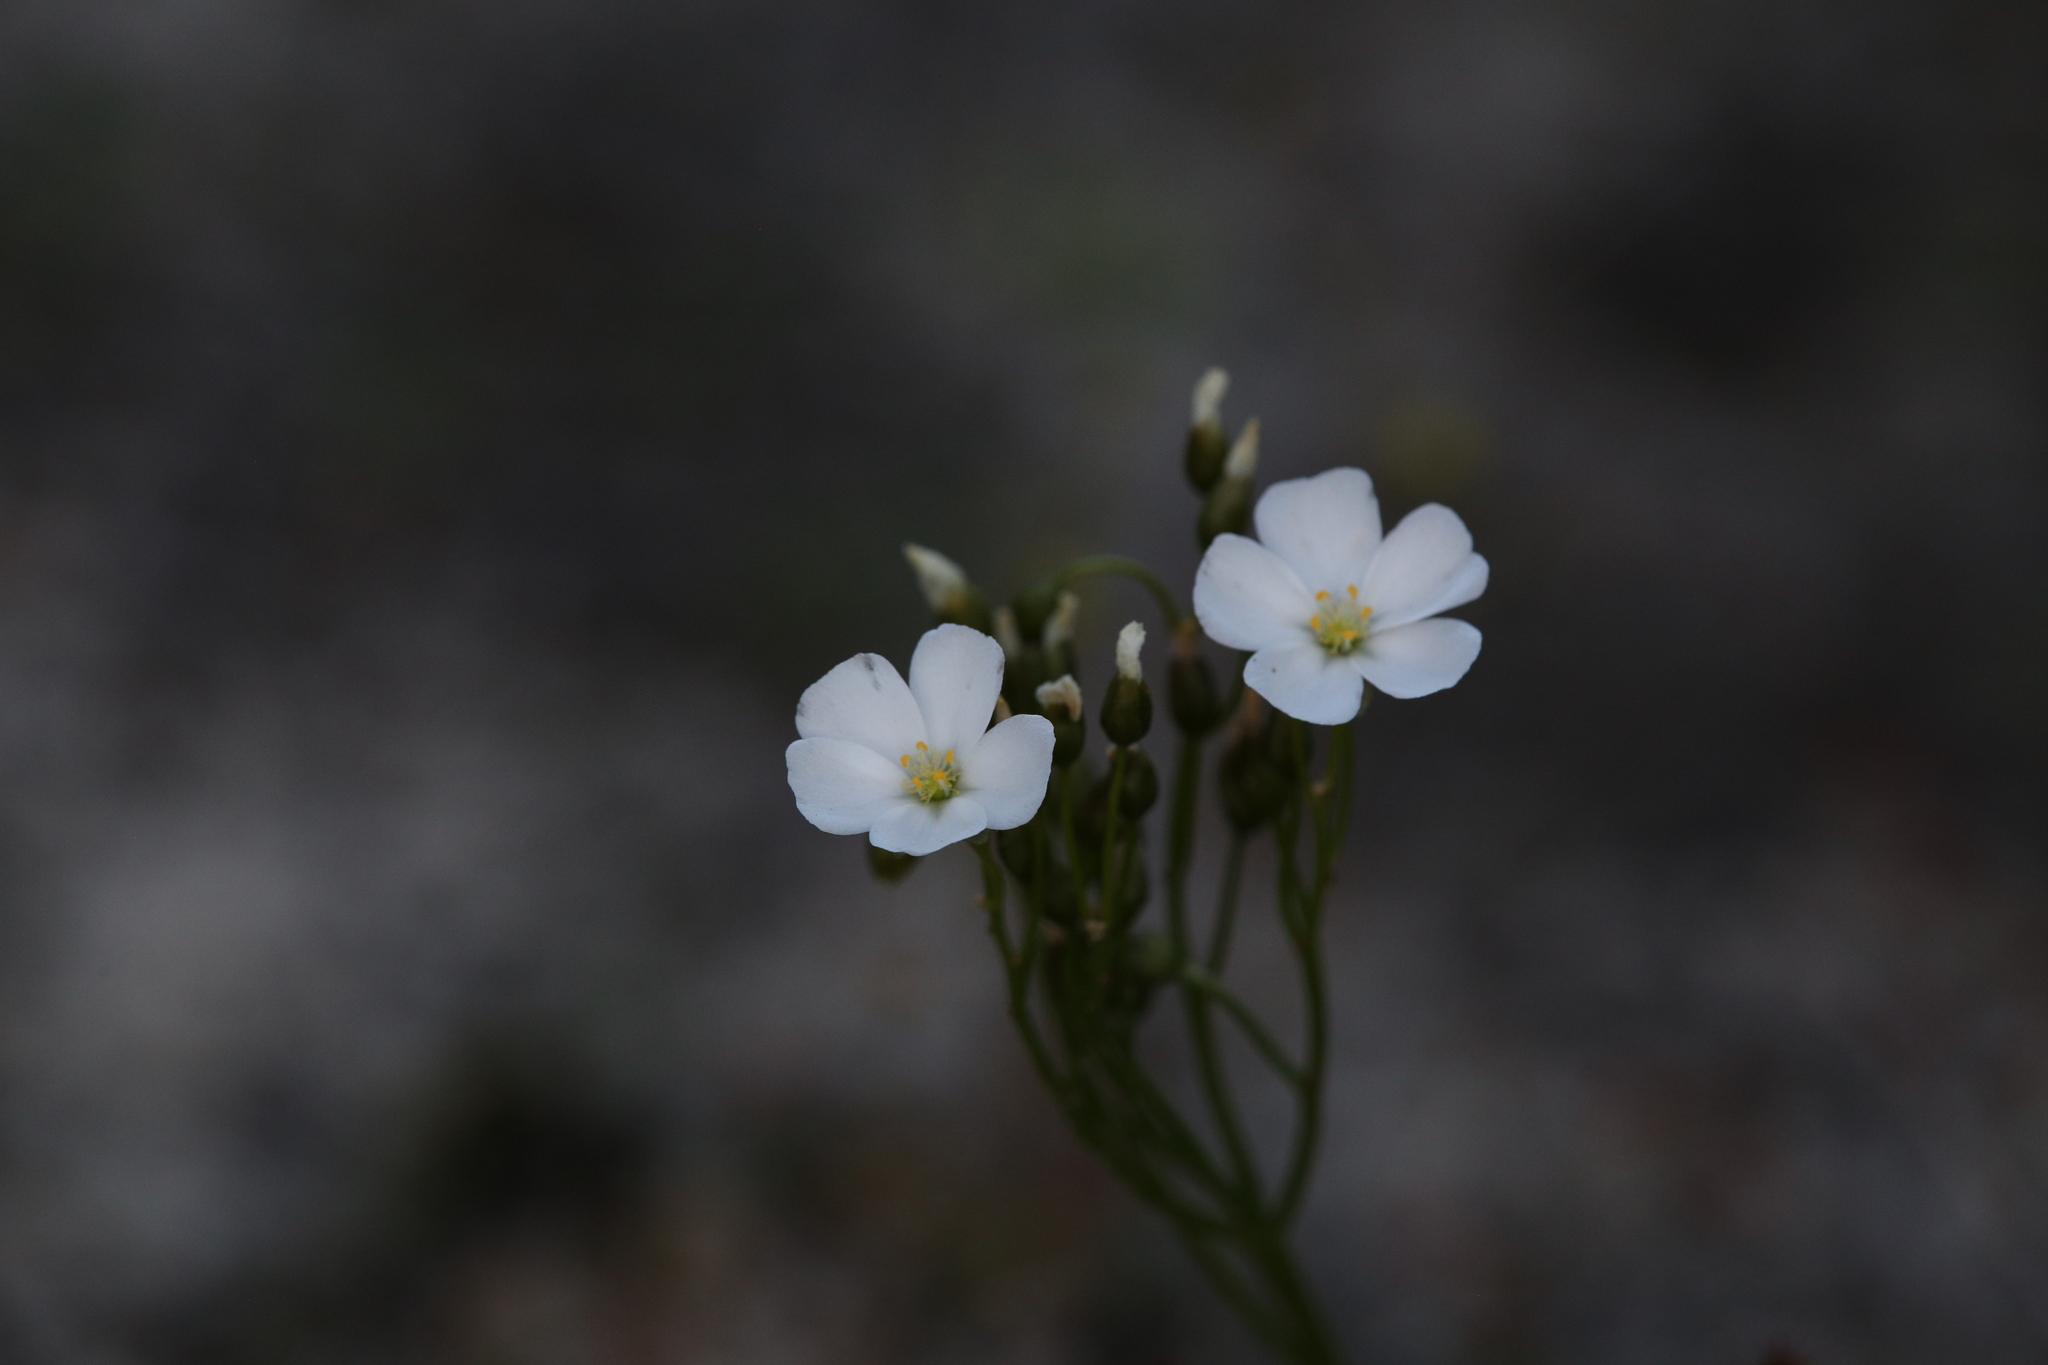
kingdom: Plantae
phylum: Tracheophyta
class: Magnoliopsida
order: Caryophyllales
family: Droseraceae
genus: Drosera
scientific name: Drosera stolonifera
